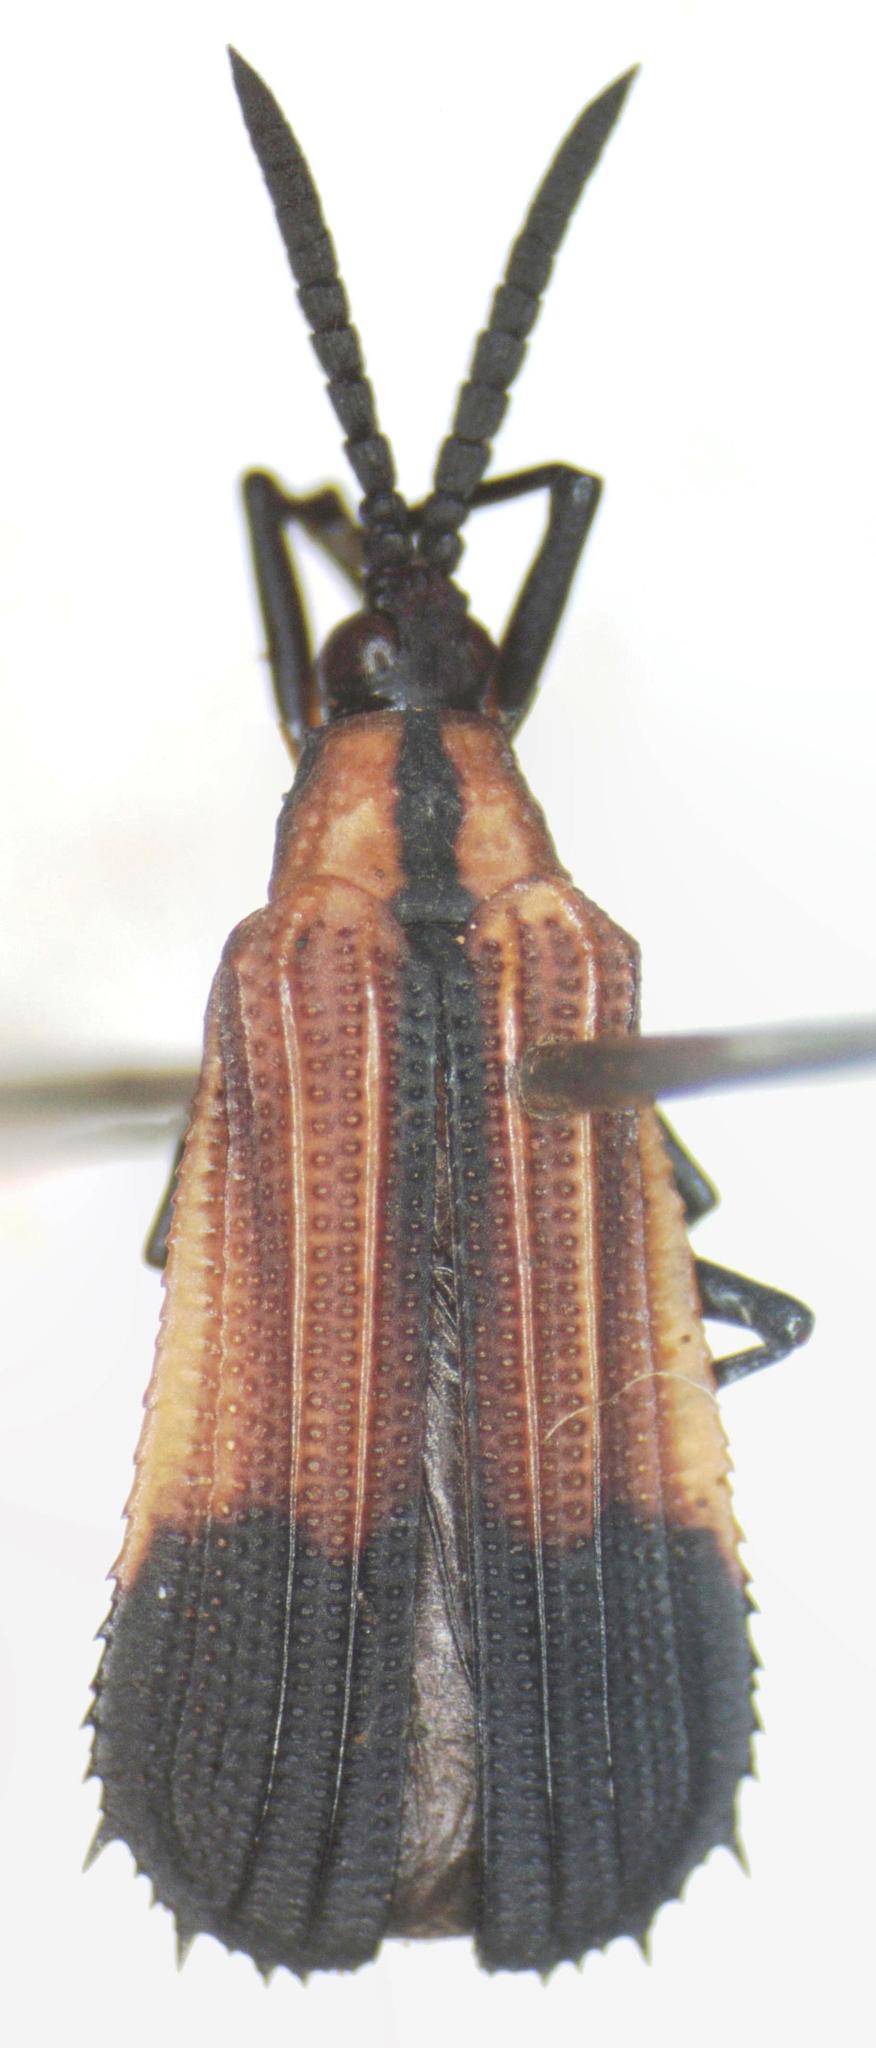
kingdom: Animalia
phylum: Arthropoda
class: Insecta
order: Coleoptera
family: Chrysomelidae
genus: Oxychalepus
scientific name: Oxychalepus posticatus
